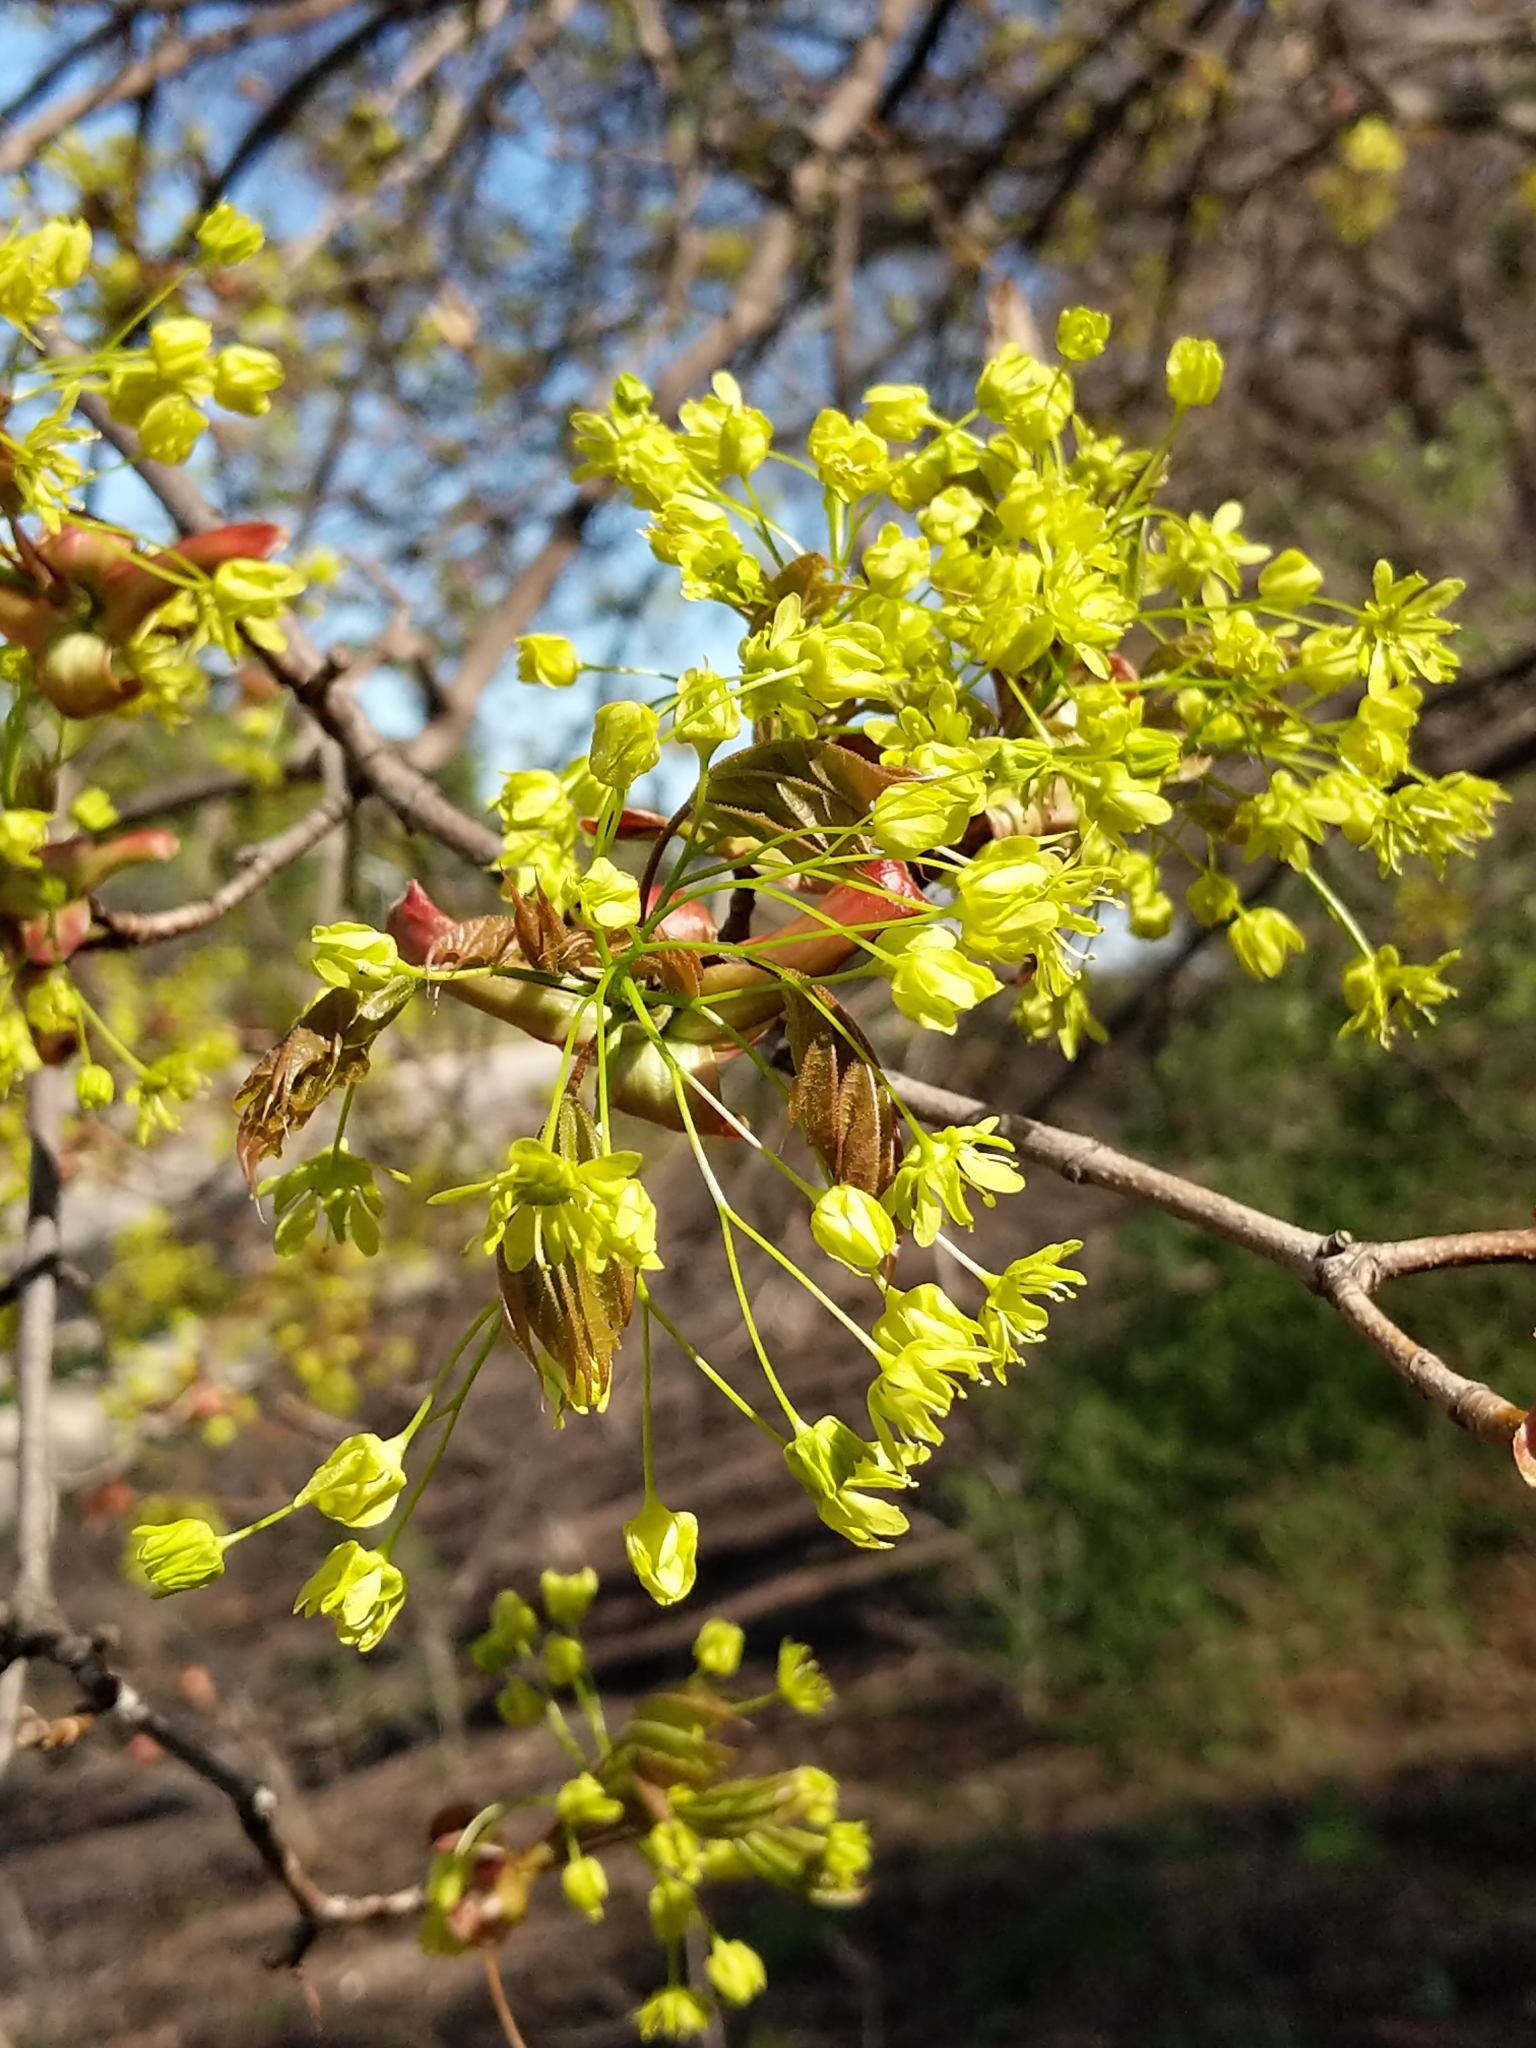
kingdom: Plantae
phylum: Tracheophyta
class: Magnoliopsida
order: Sapindales
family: Sapindaceae
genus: Acer
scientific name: Acer platanoides
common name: Norway maple
